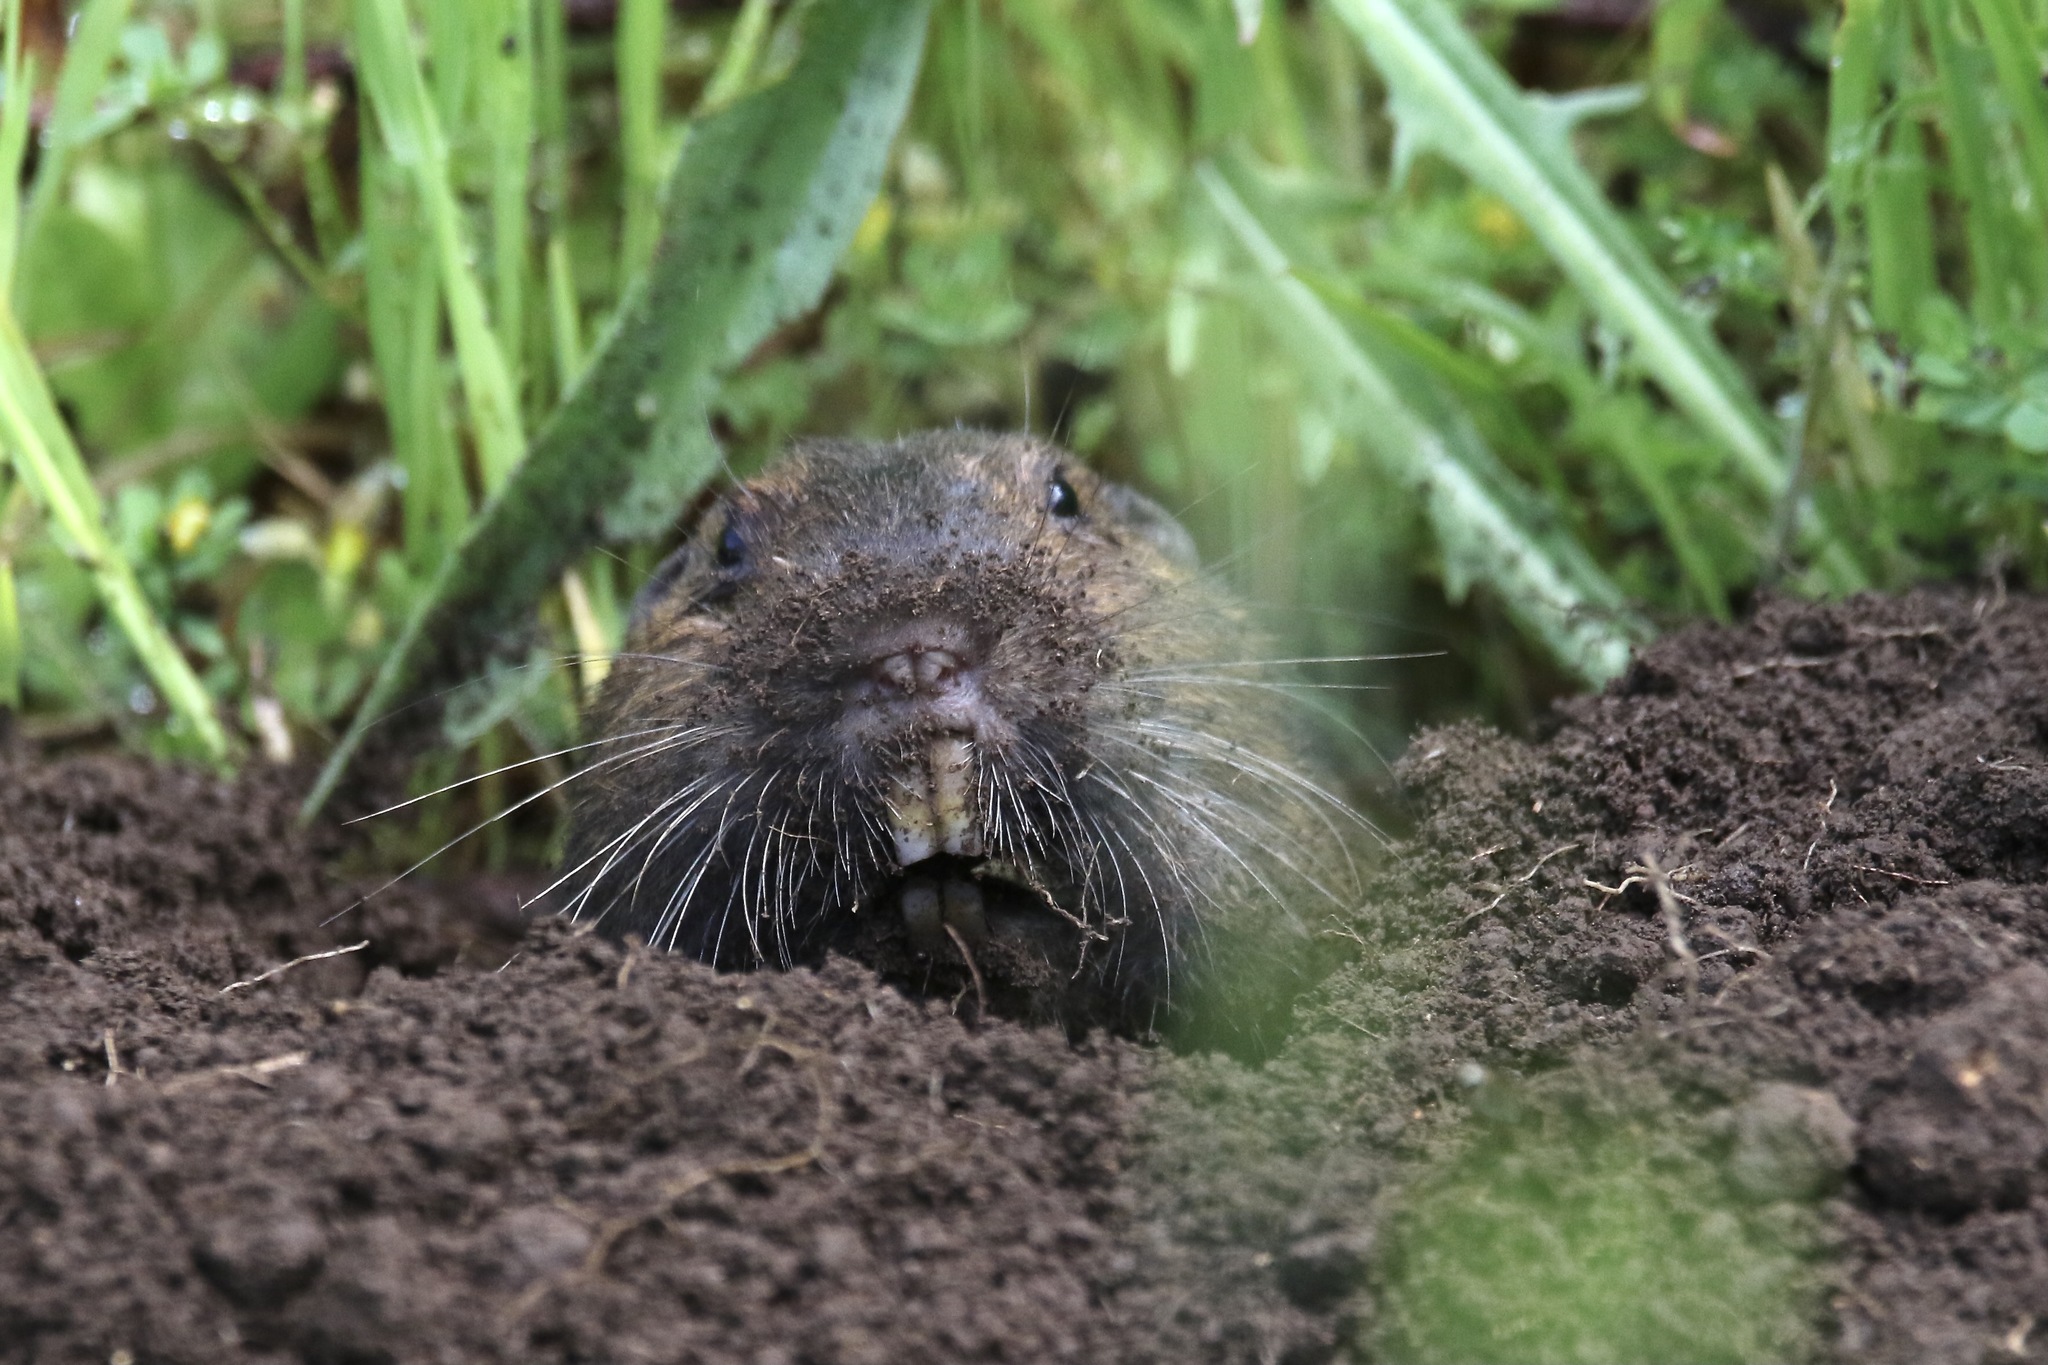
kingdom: Animalia
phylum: Chordata
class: Mammalia
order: Rodentia
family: Geomyidae
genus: Thomomys
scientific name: Thomomys bottae
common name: Botta's pocket gopher
